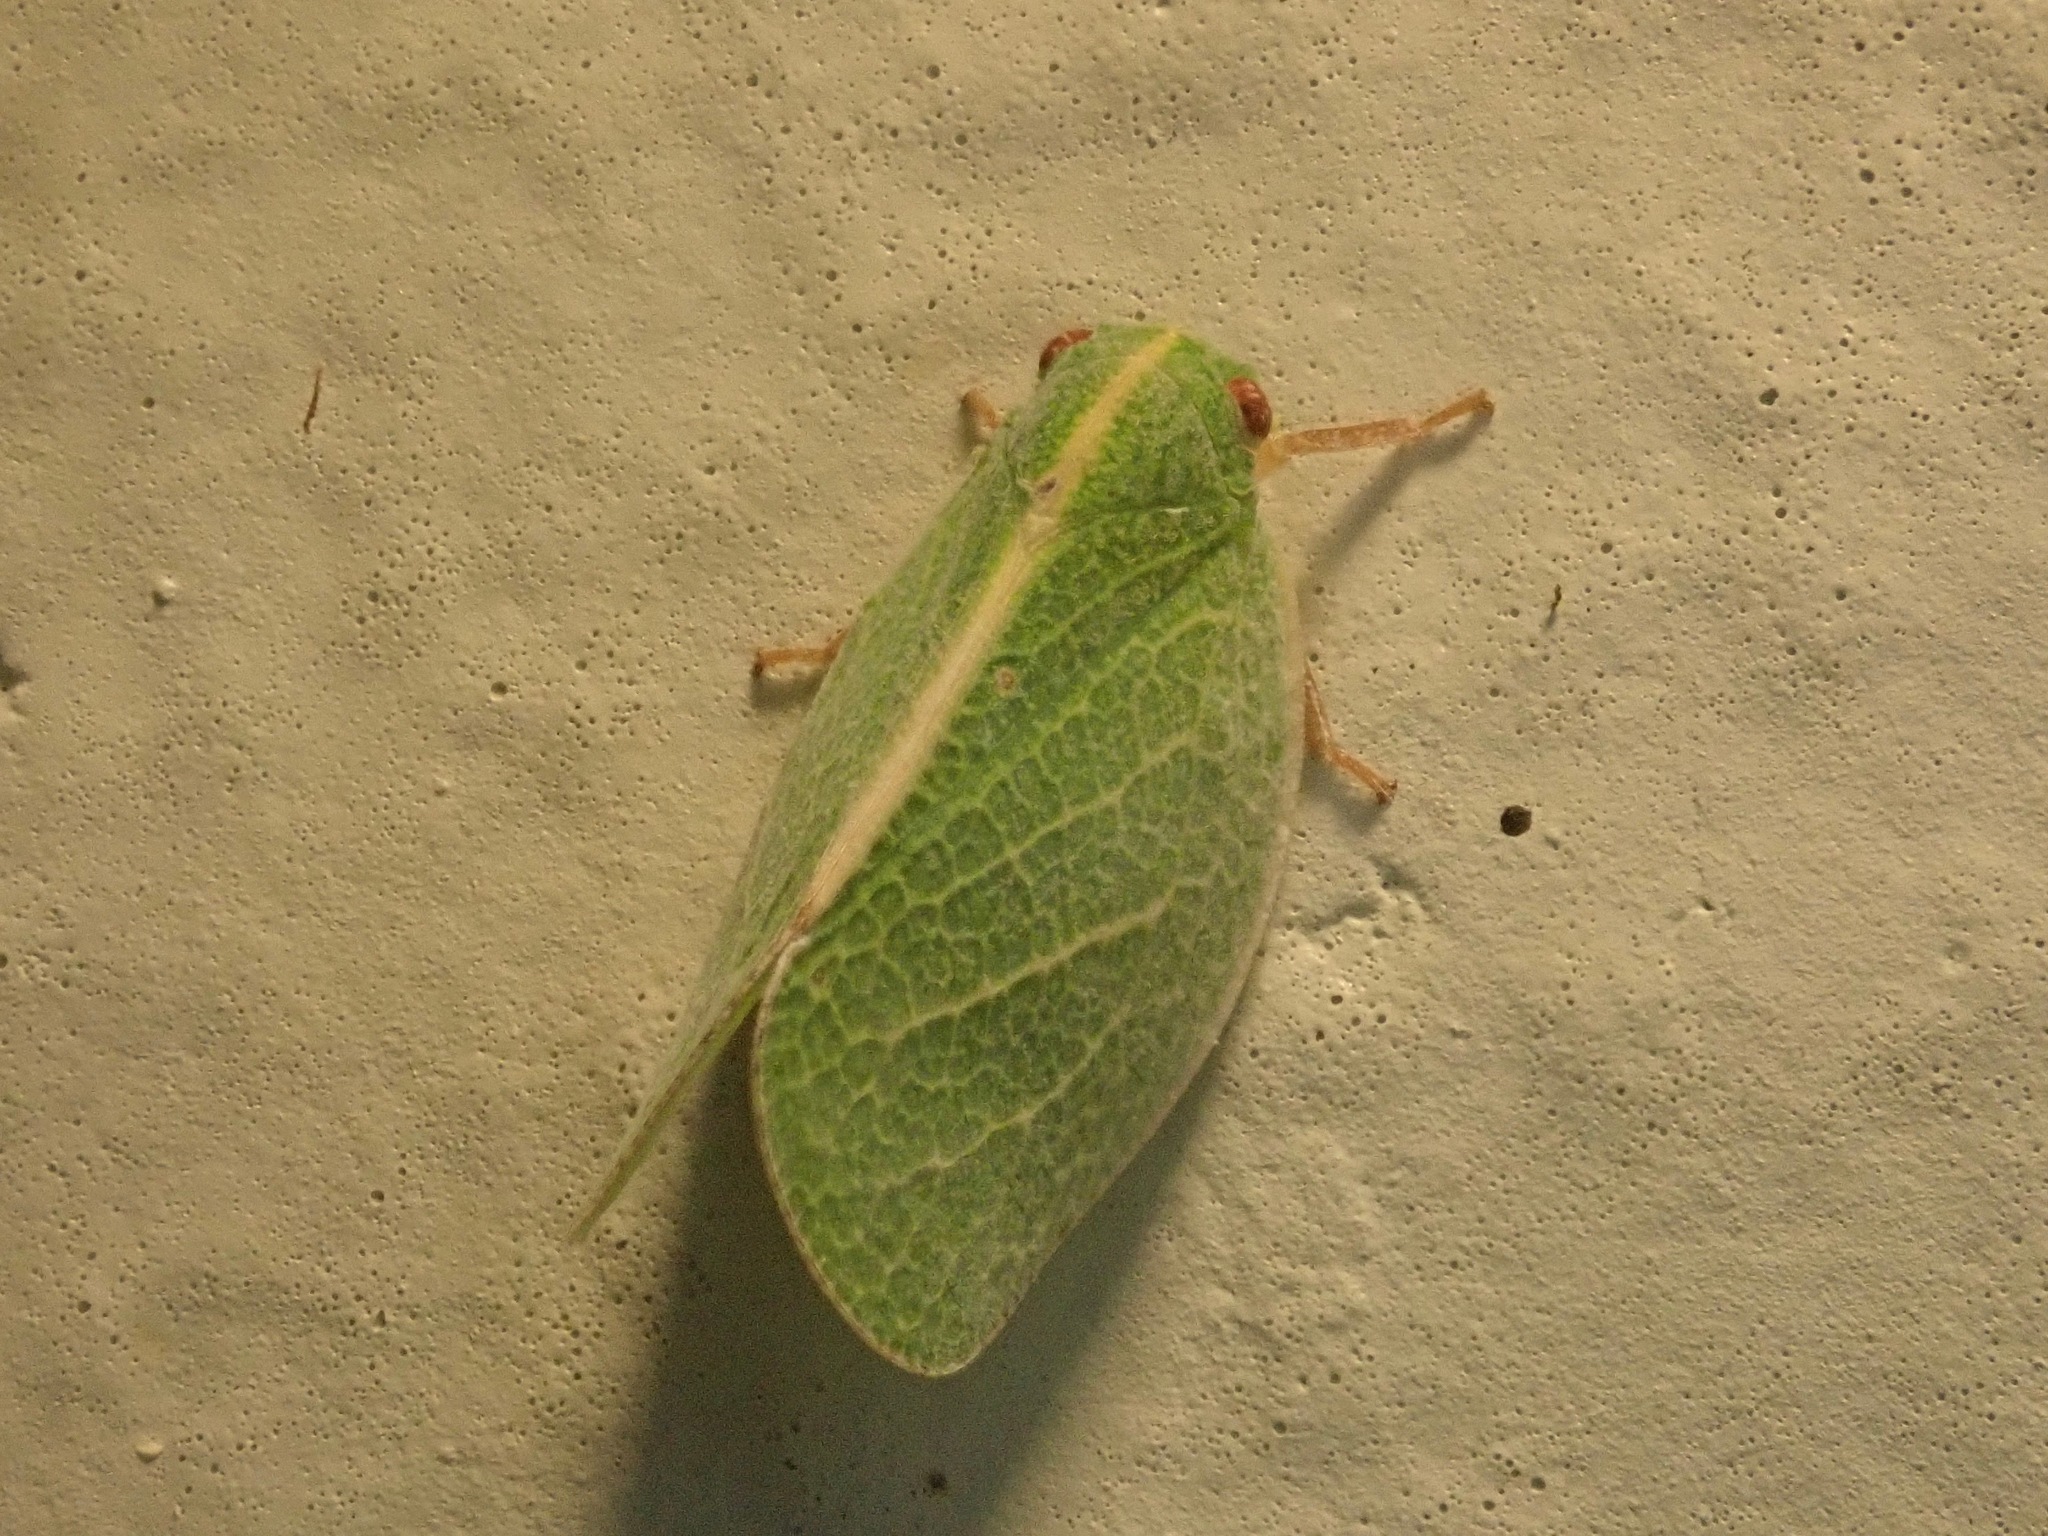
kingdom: Animalia
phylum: Arthropoda
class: Insecta
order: Hemiptera
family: Acanaloniidae
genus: Acanalonia
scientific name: Acanalonia servillei
